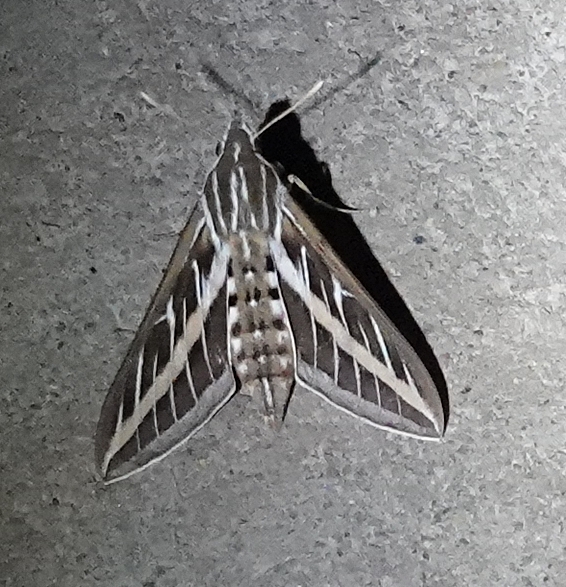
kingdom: Animalia
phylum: Arthropoda
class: Insecta
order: Lepidoptera
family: Sphingidae
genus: Hyles
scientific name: Hyles lineata
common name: White-lined sphinx
